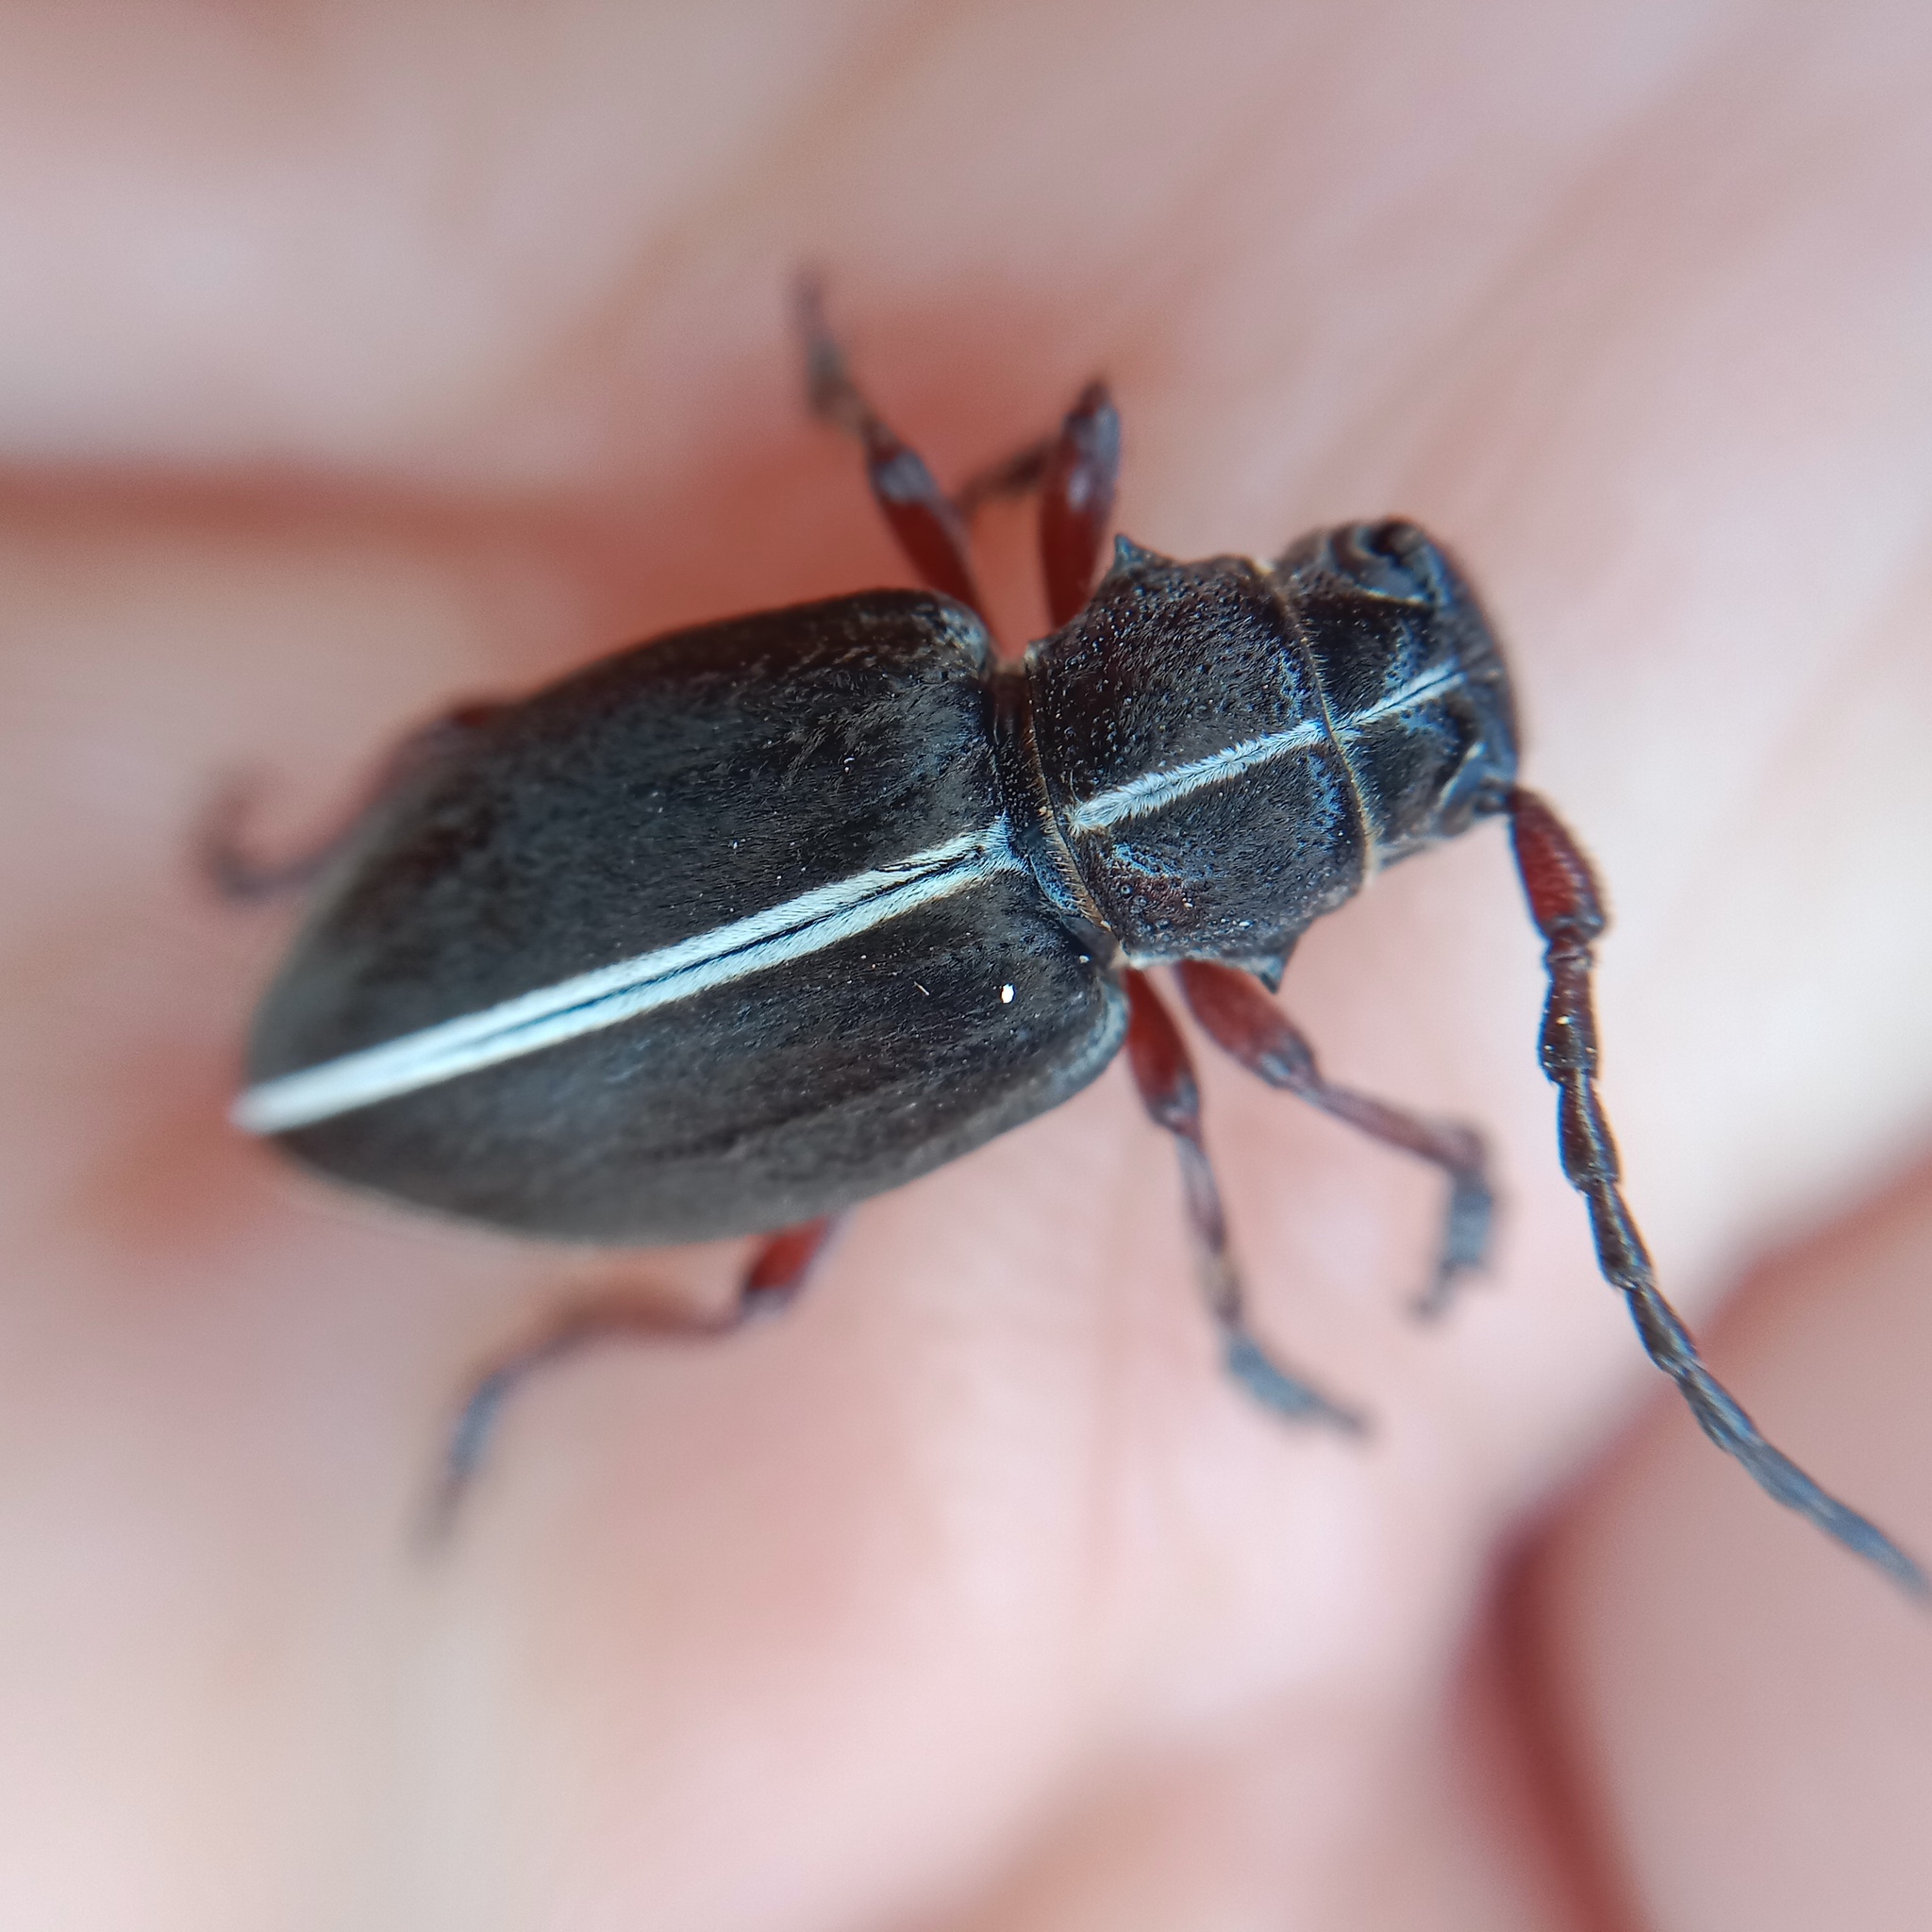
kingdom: Animalia
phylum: Arthropoda
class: Insecta
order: Coleoptera
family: Cerambycidae
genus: Dorcadion
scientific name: Dorcadion tauricum
